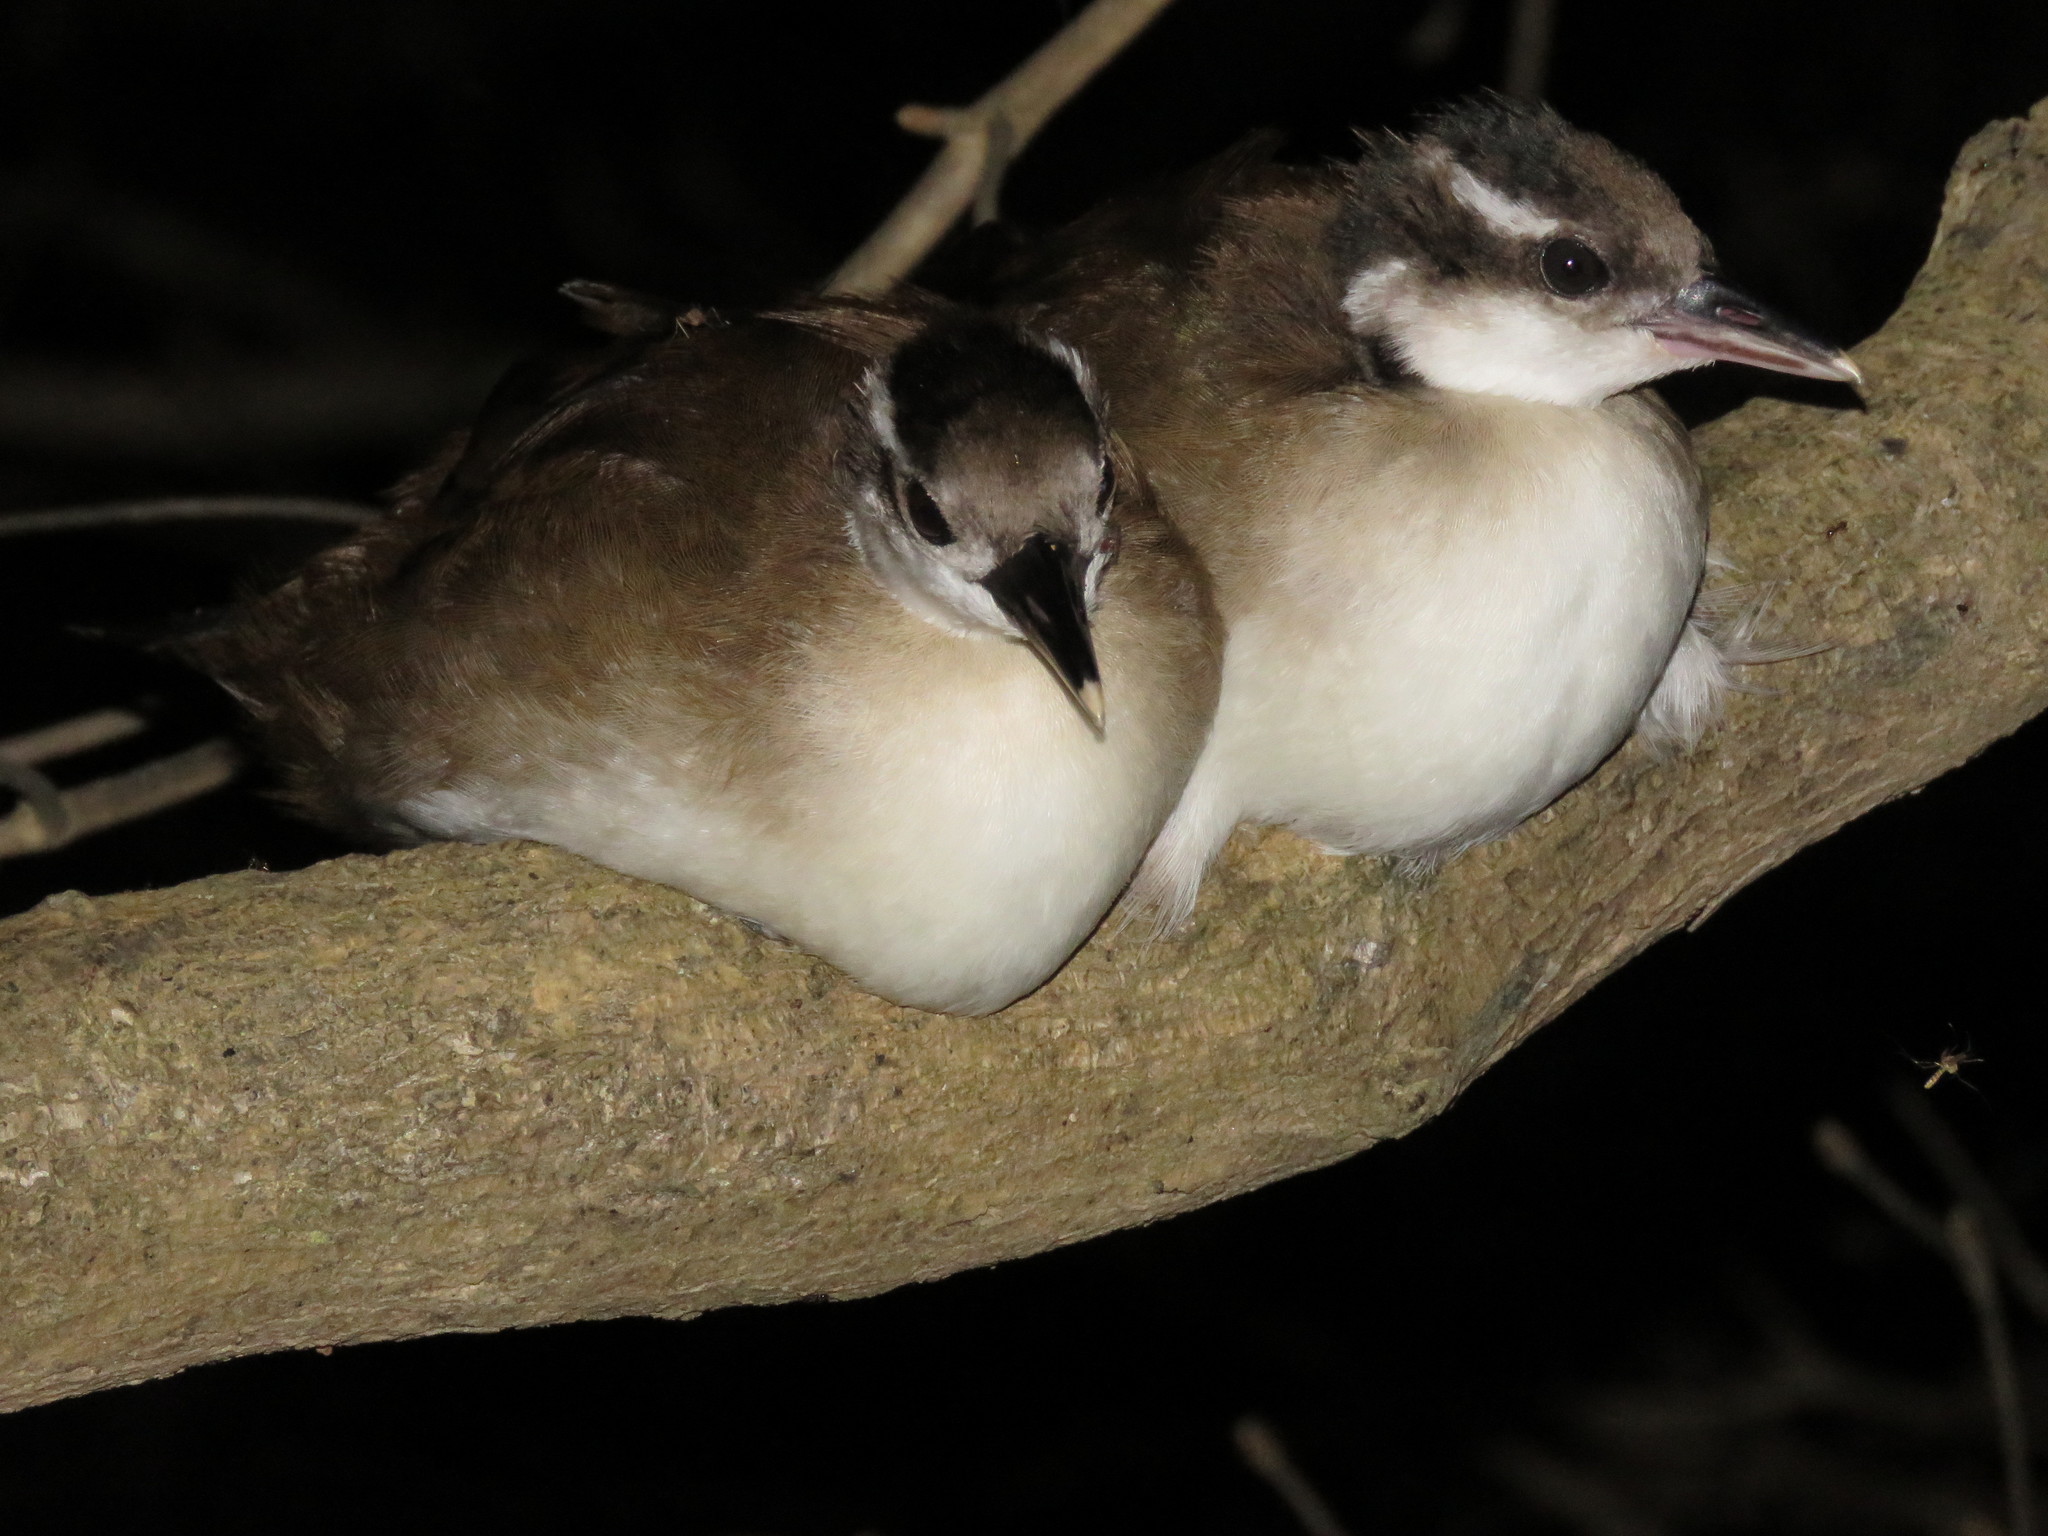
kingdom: Animalia
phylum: Chordata
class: Aves
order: Gruiformes
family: Heliornithidae
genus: Heliornis
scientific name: Heliornis fulica
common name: Sungrebe
